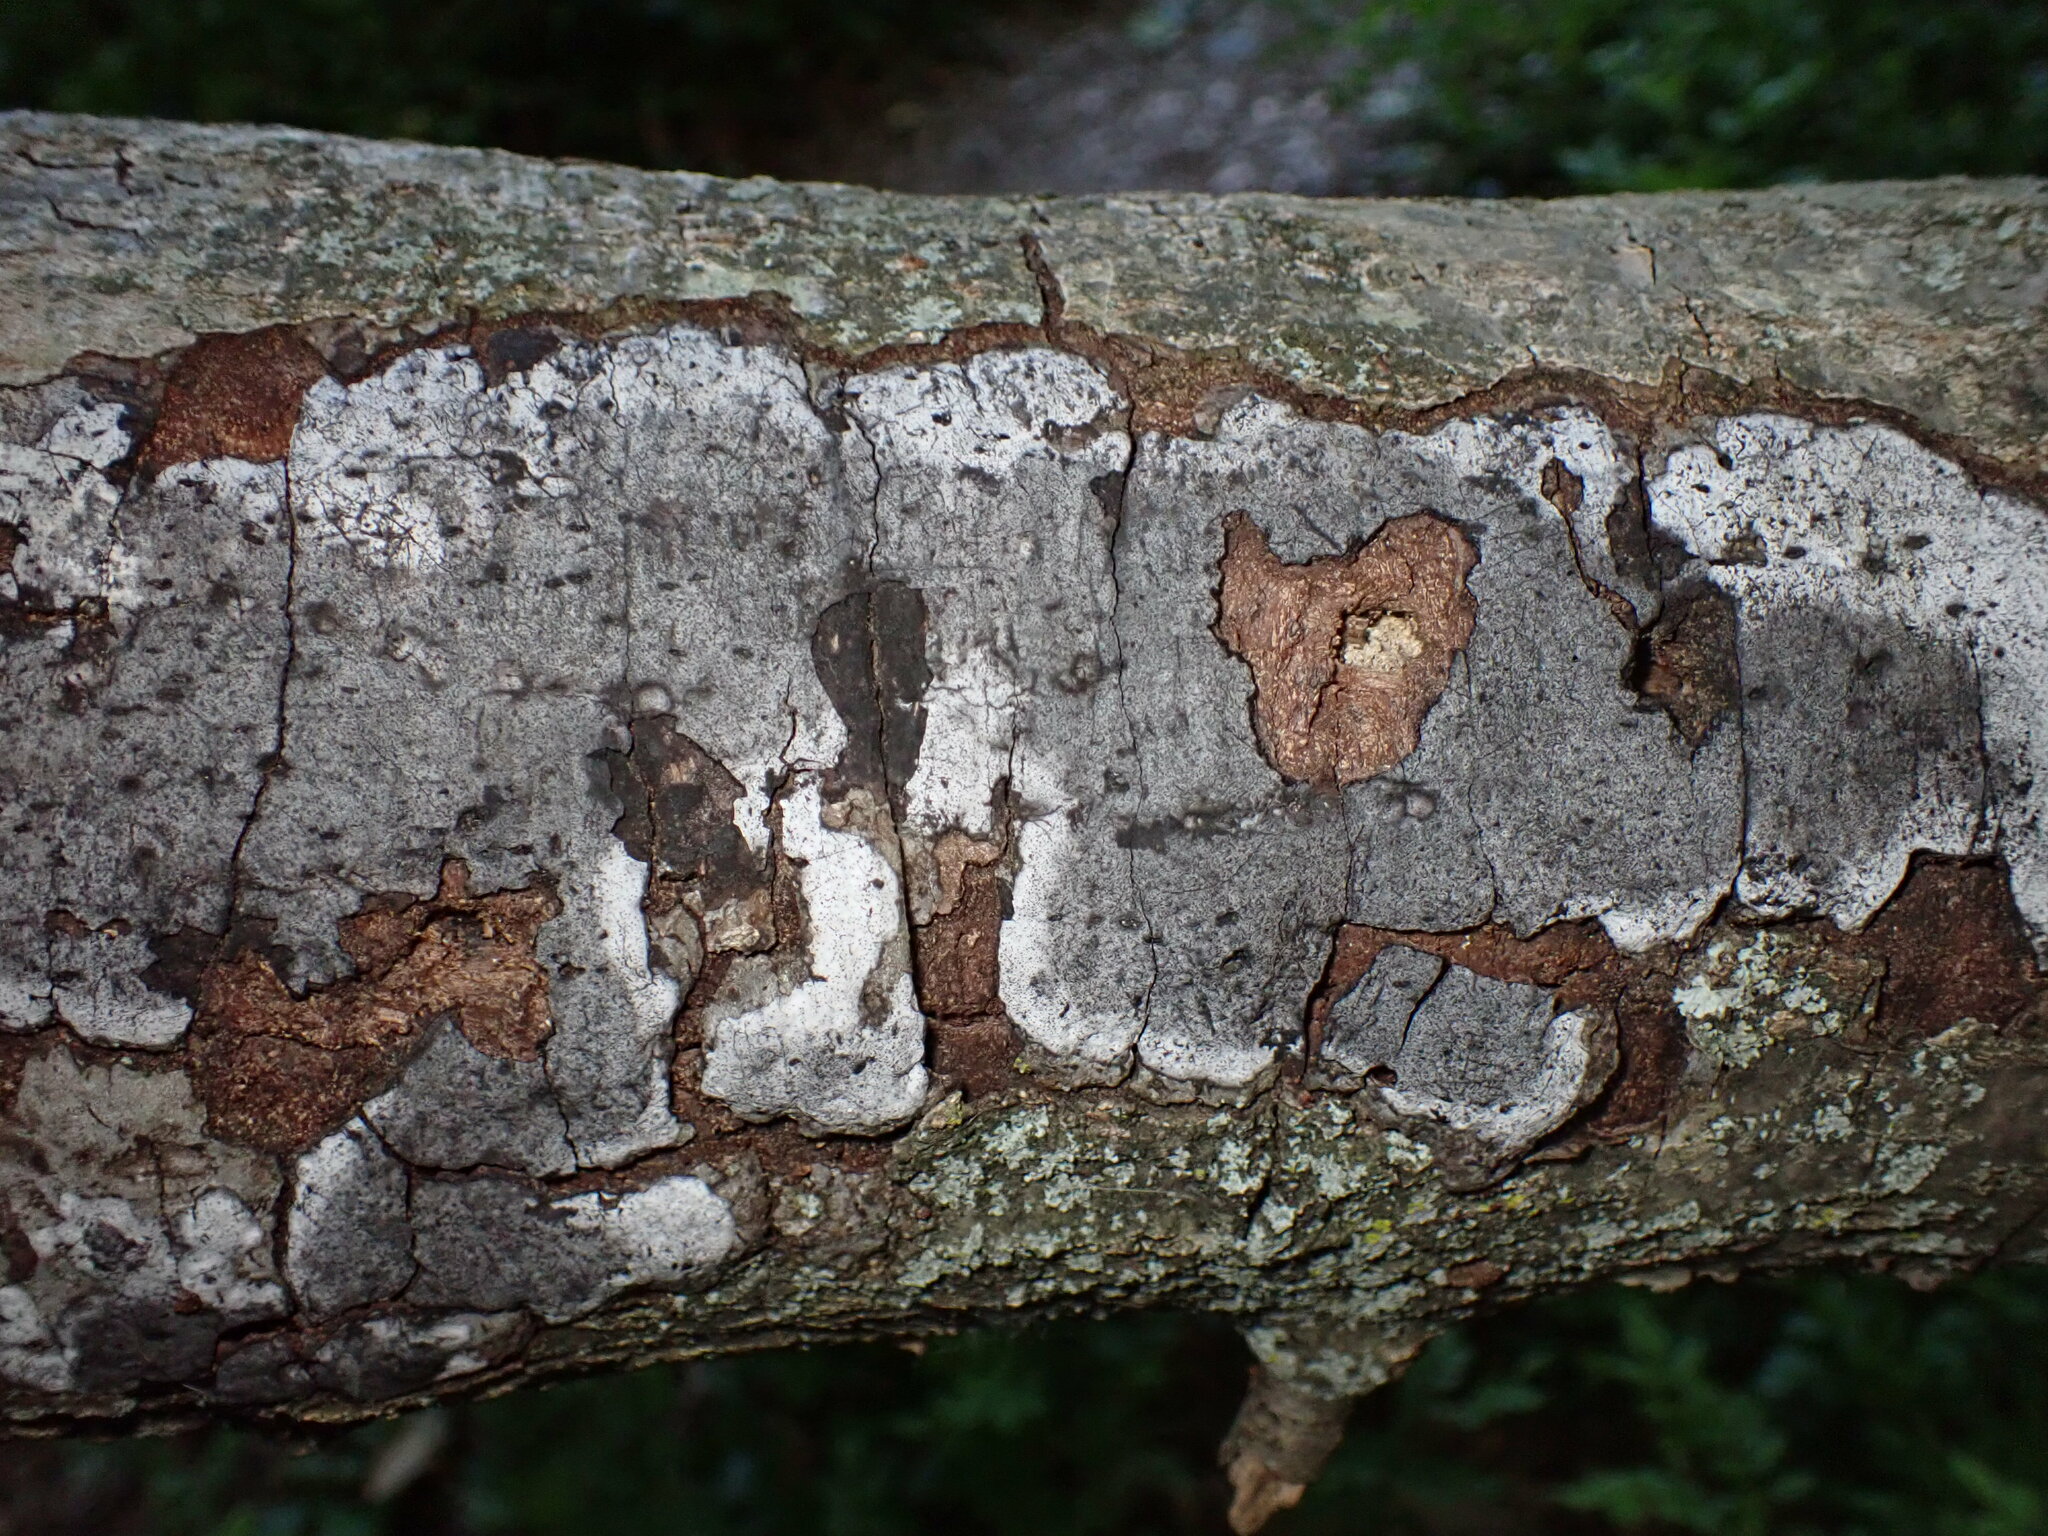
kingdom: Fungi
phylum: Ascomycota
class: Sordariomycetes
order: Xylariales
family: Graphostromataceae
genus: Biscogniauxia
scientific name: Biscogniauxia atropunctata
